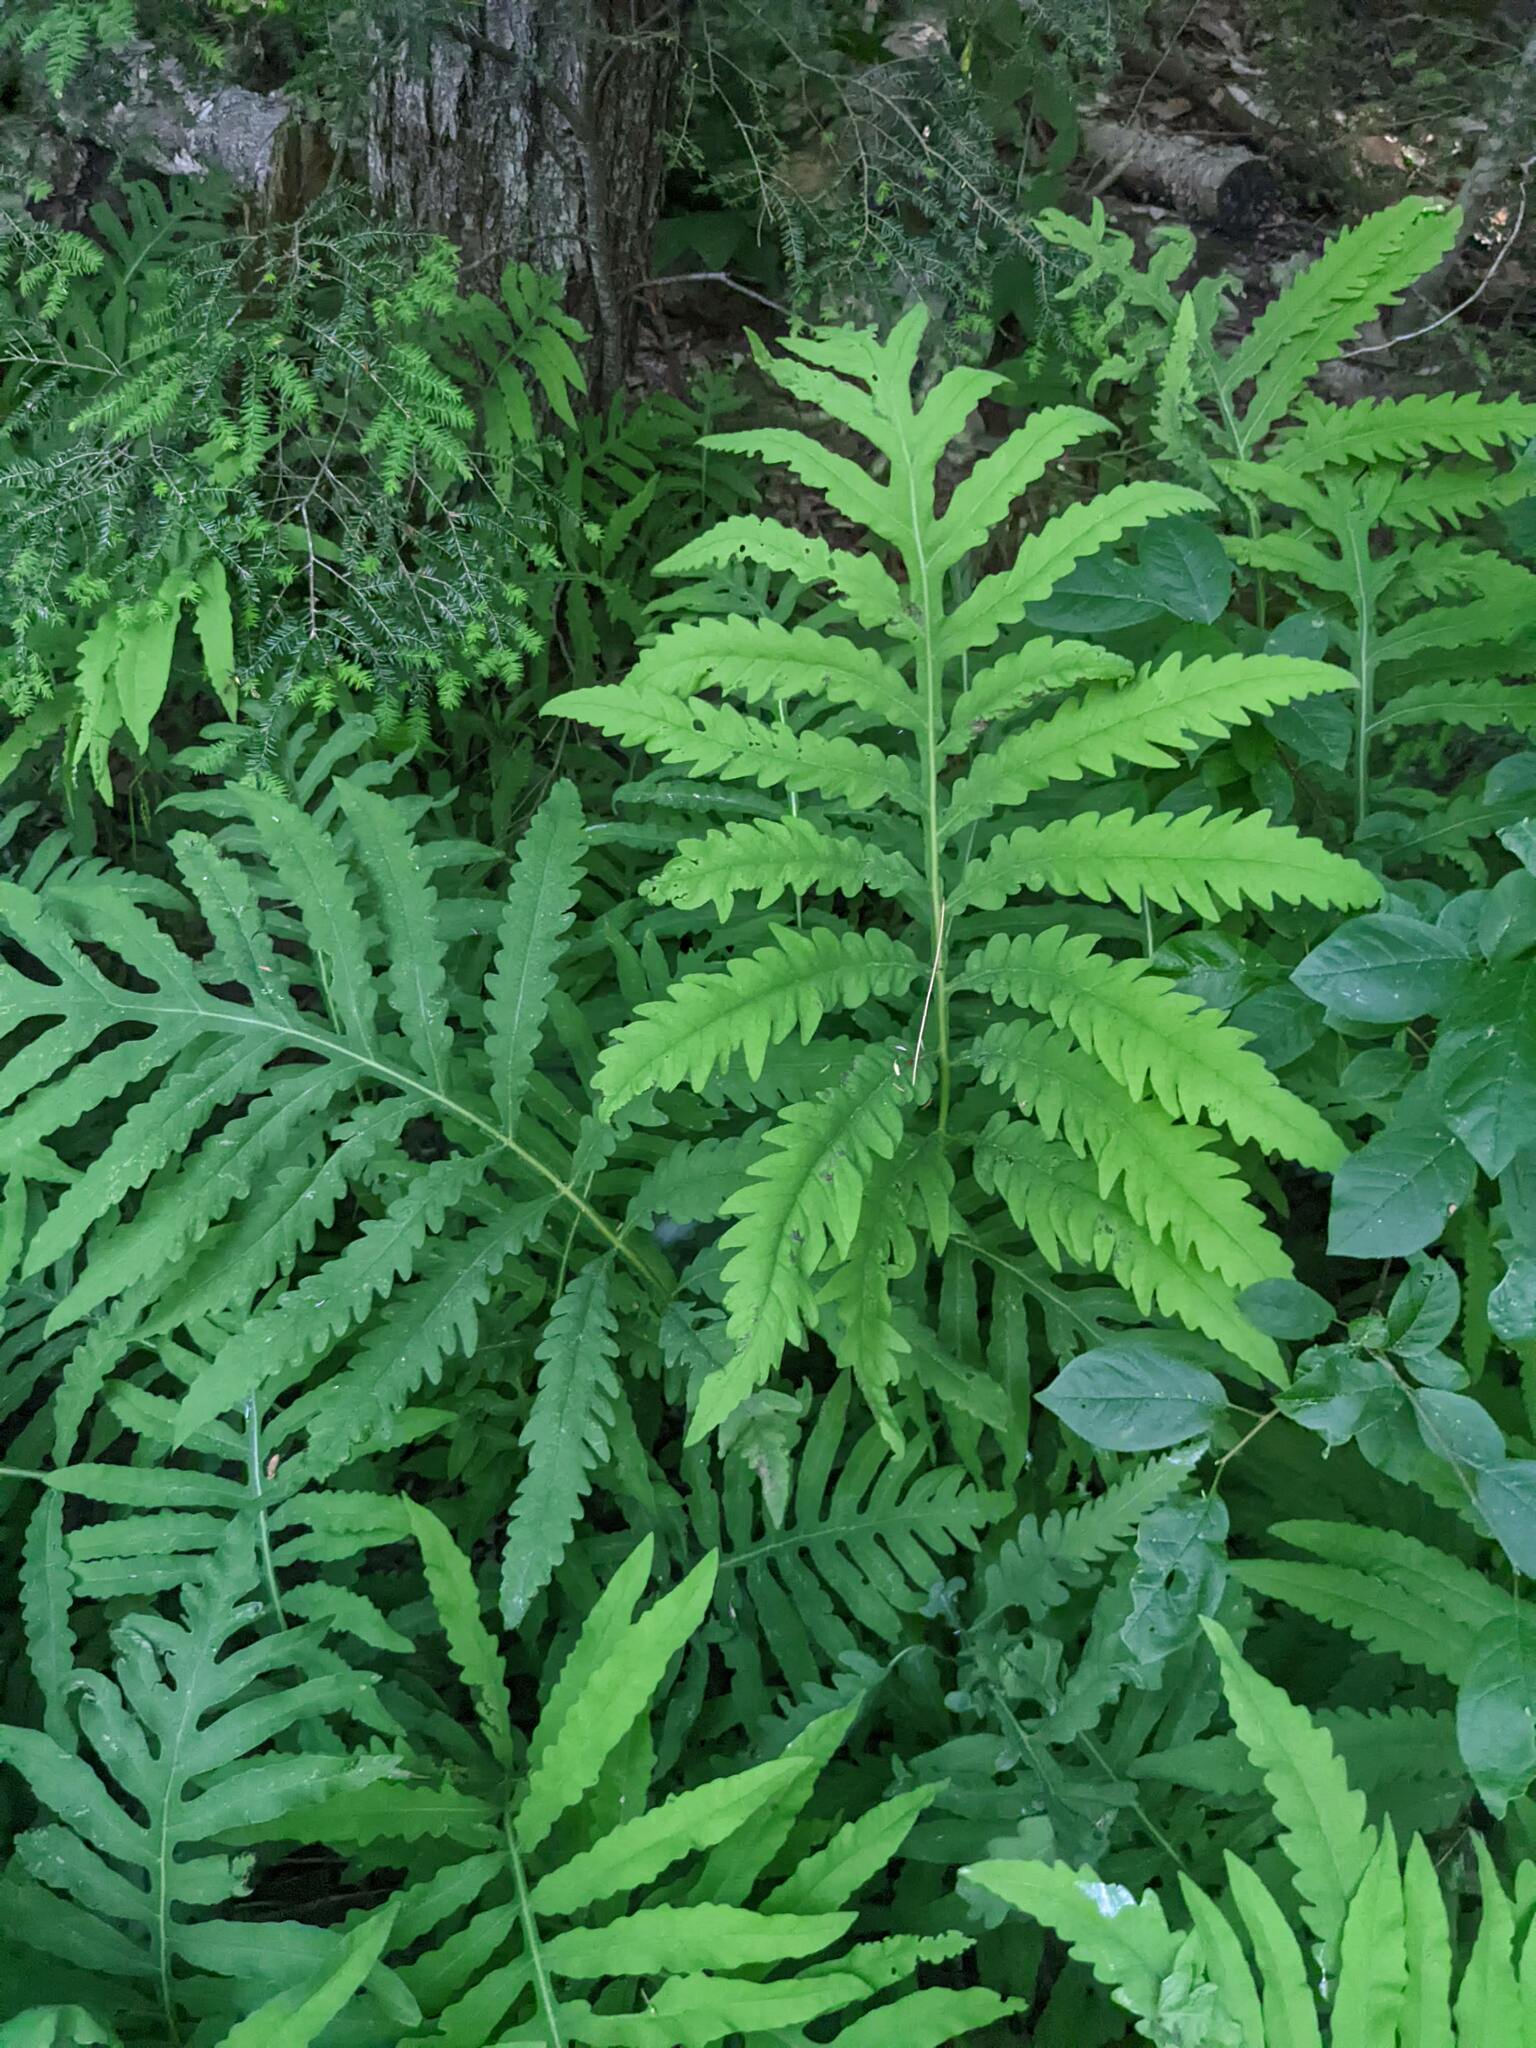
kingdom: Plantae
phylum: Tracheophyta
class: Polypodiopsida
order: Polypodiales
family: Onocleaceae
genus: Onoclea
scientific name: Onoclea sensibilis
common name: Sensitive fern
